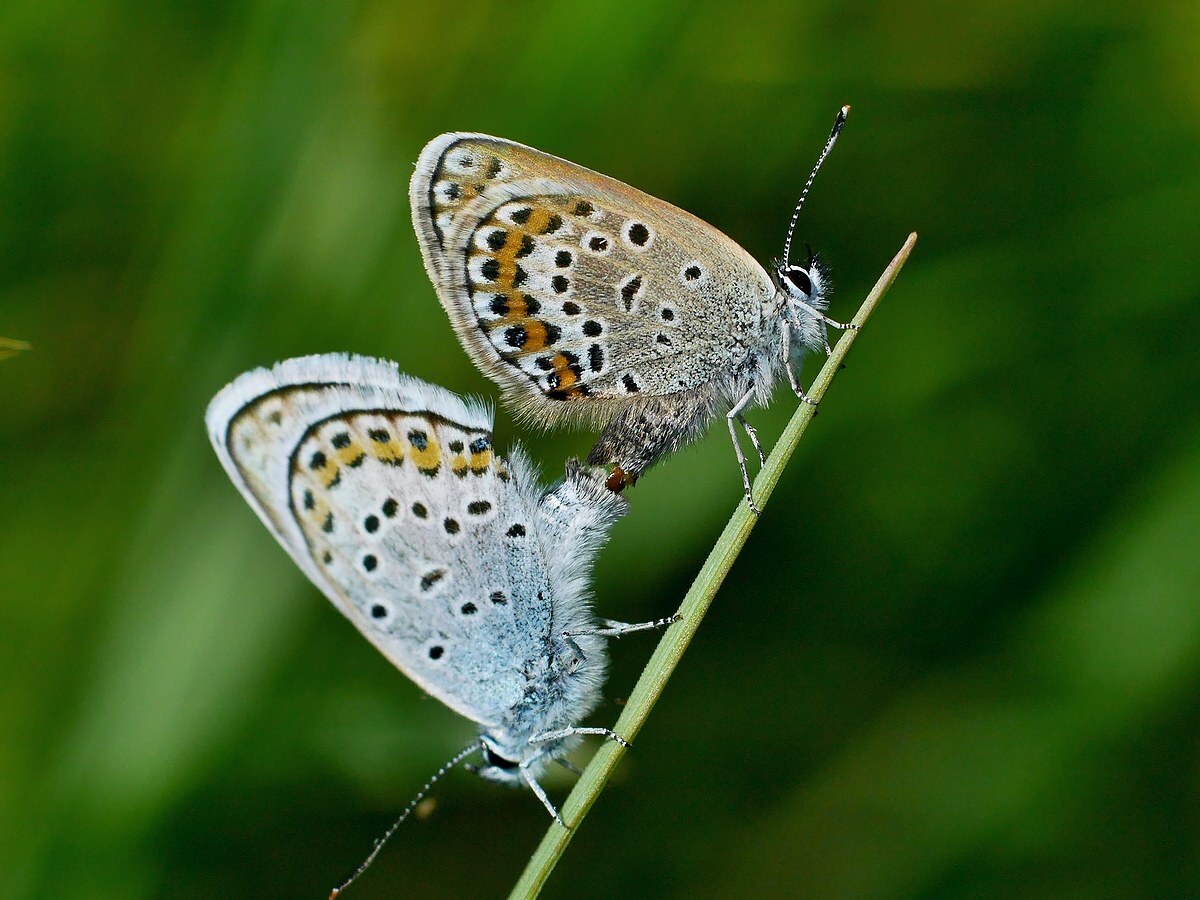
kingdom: Animalia
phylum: Arthropoda
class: Insecta
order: Lepidoptera
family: Lycaenidae
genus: Plebejus
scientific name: Plebejus argus
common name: Silver-studded blue
